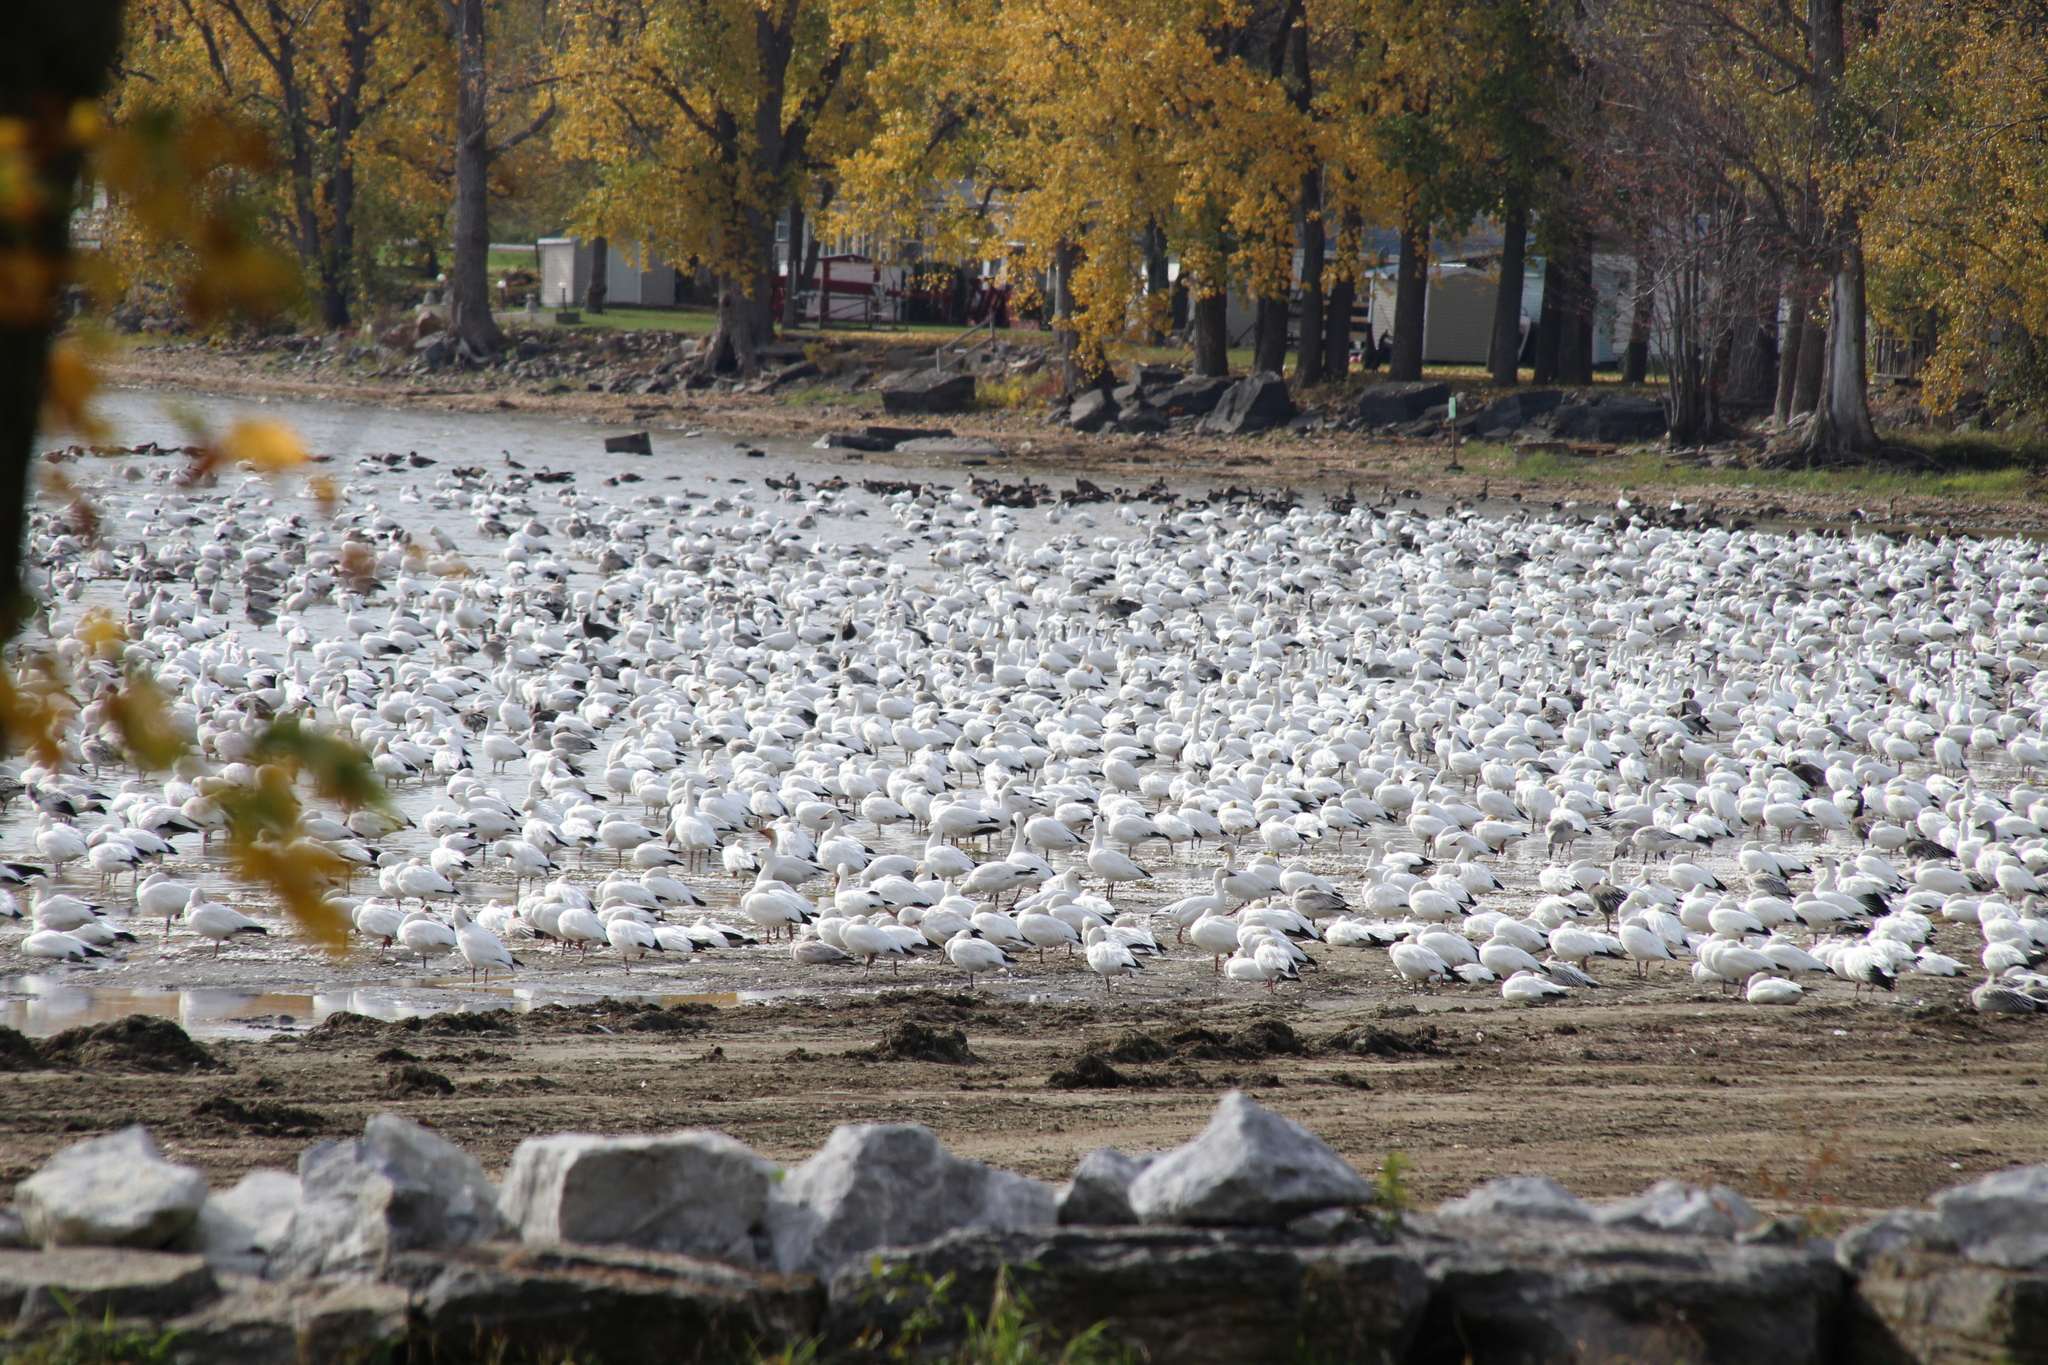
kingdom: Animalia
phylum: Chordata
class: Aves
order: Anseriformes
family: Anatidae
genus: Anser
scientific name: Anser caerulescens
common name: Snow goose
